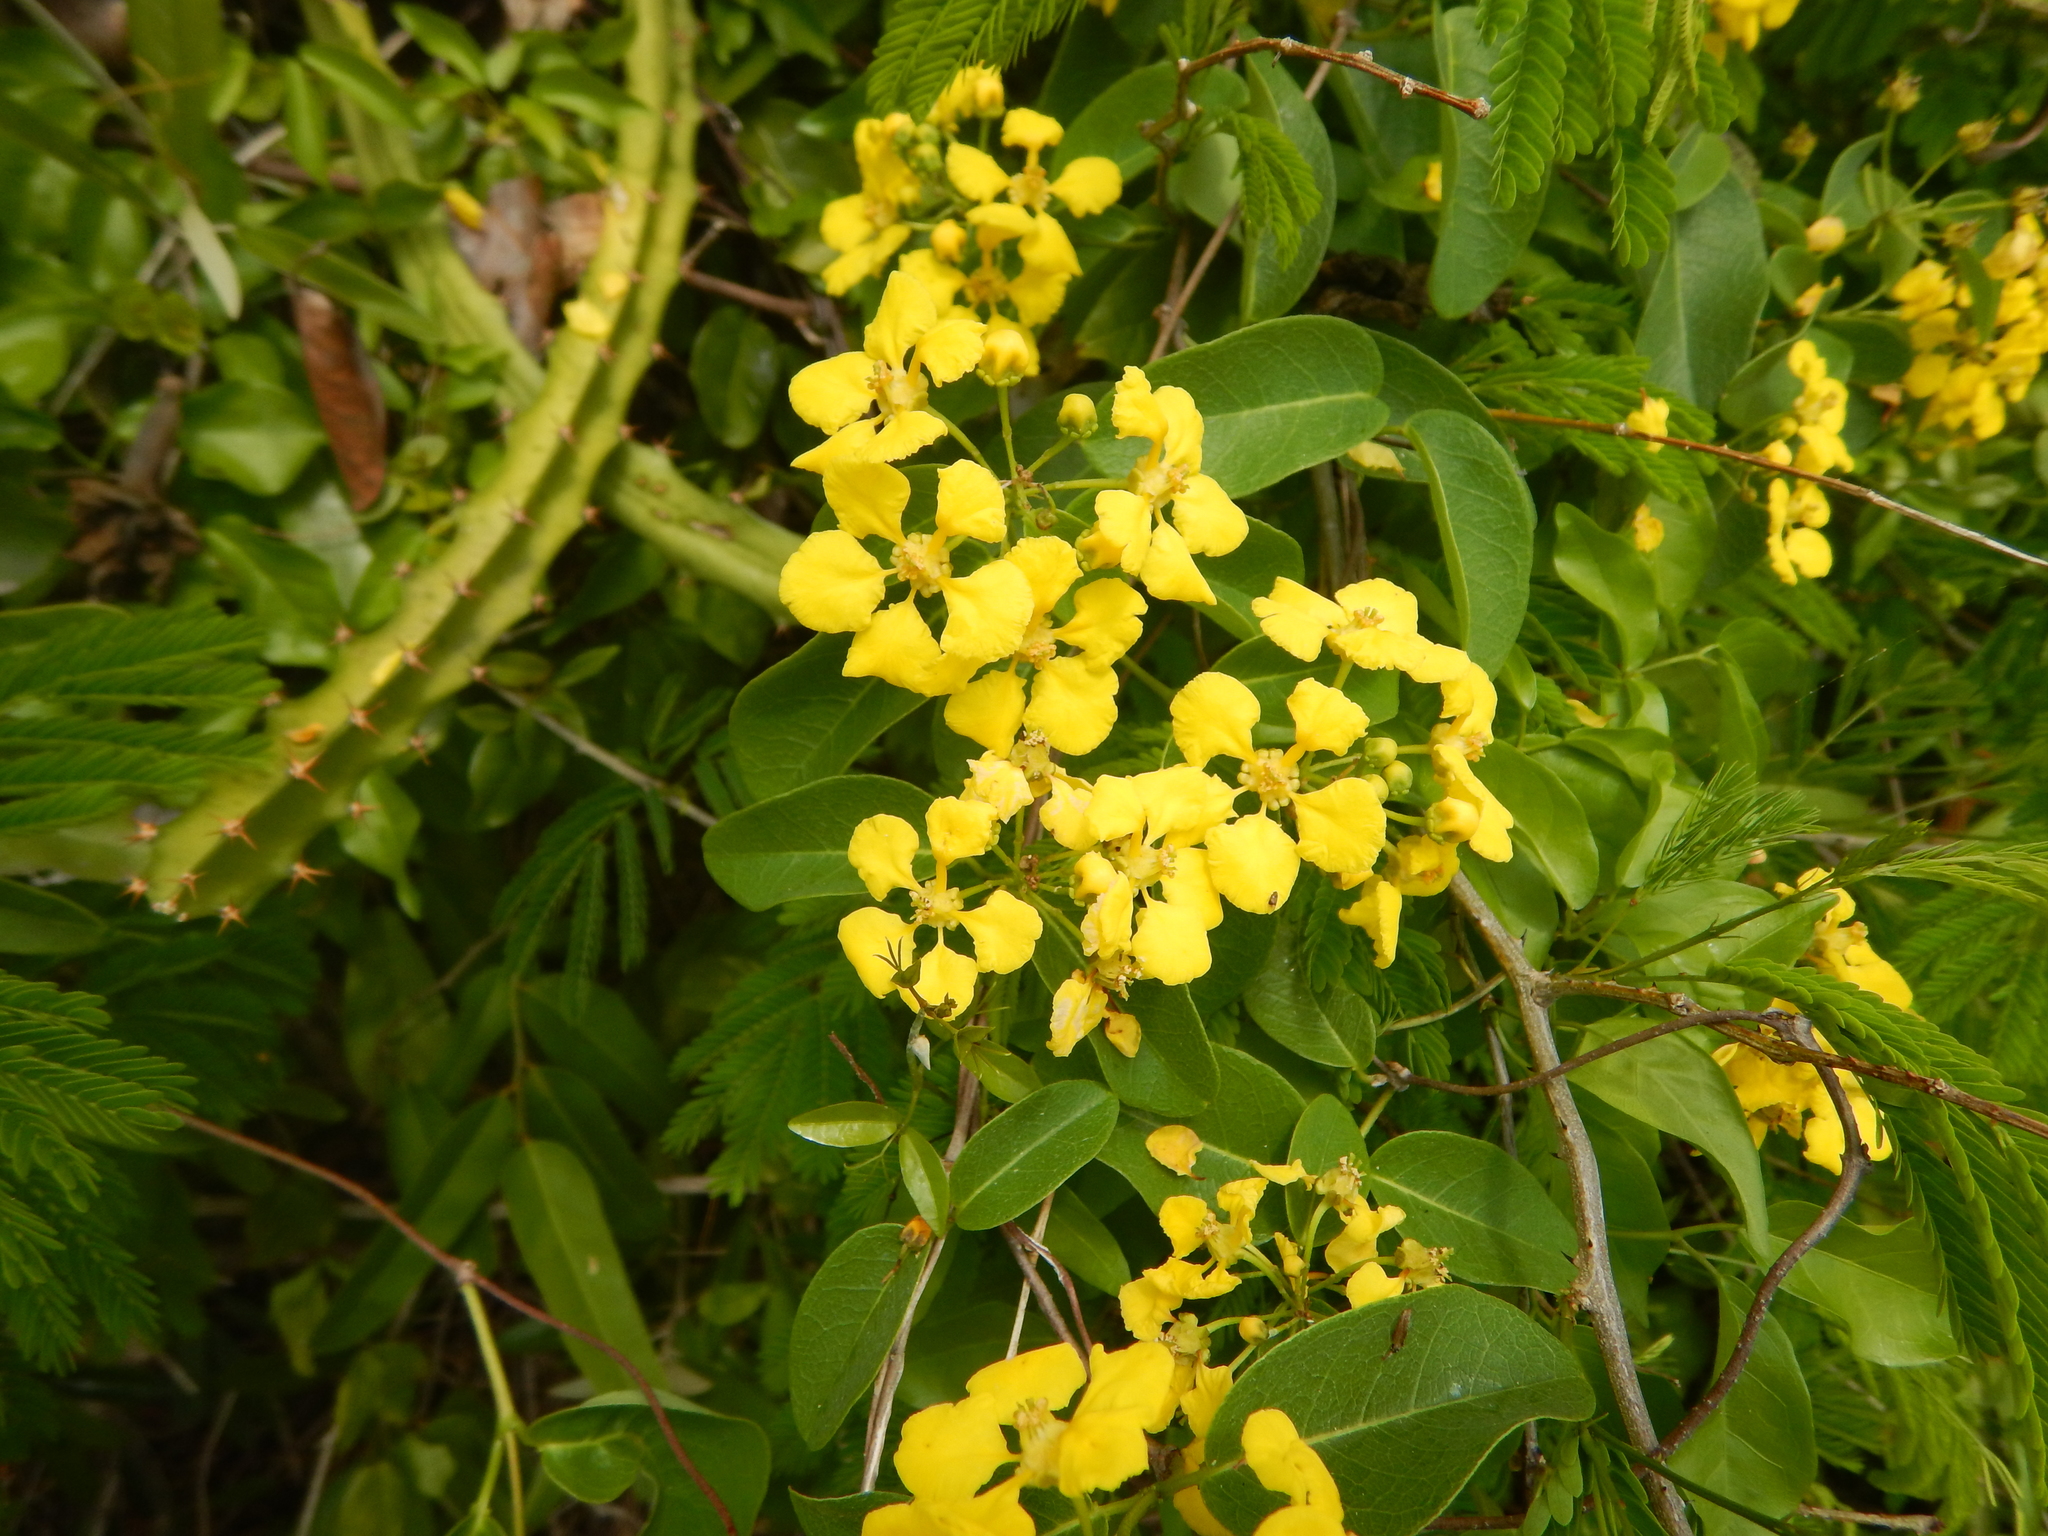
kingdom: Plantae
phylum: Tracheophyta
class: Magnoliopsida
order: Malpighiales
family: Malpighiaceae
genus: Stigmaphyllon
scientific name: Stigmaphyllon emarginatum
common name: Monarch amazonvine
